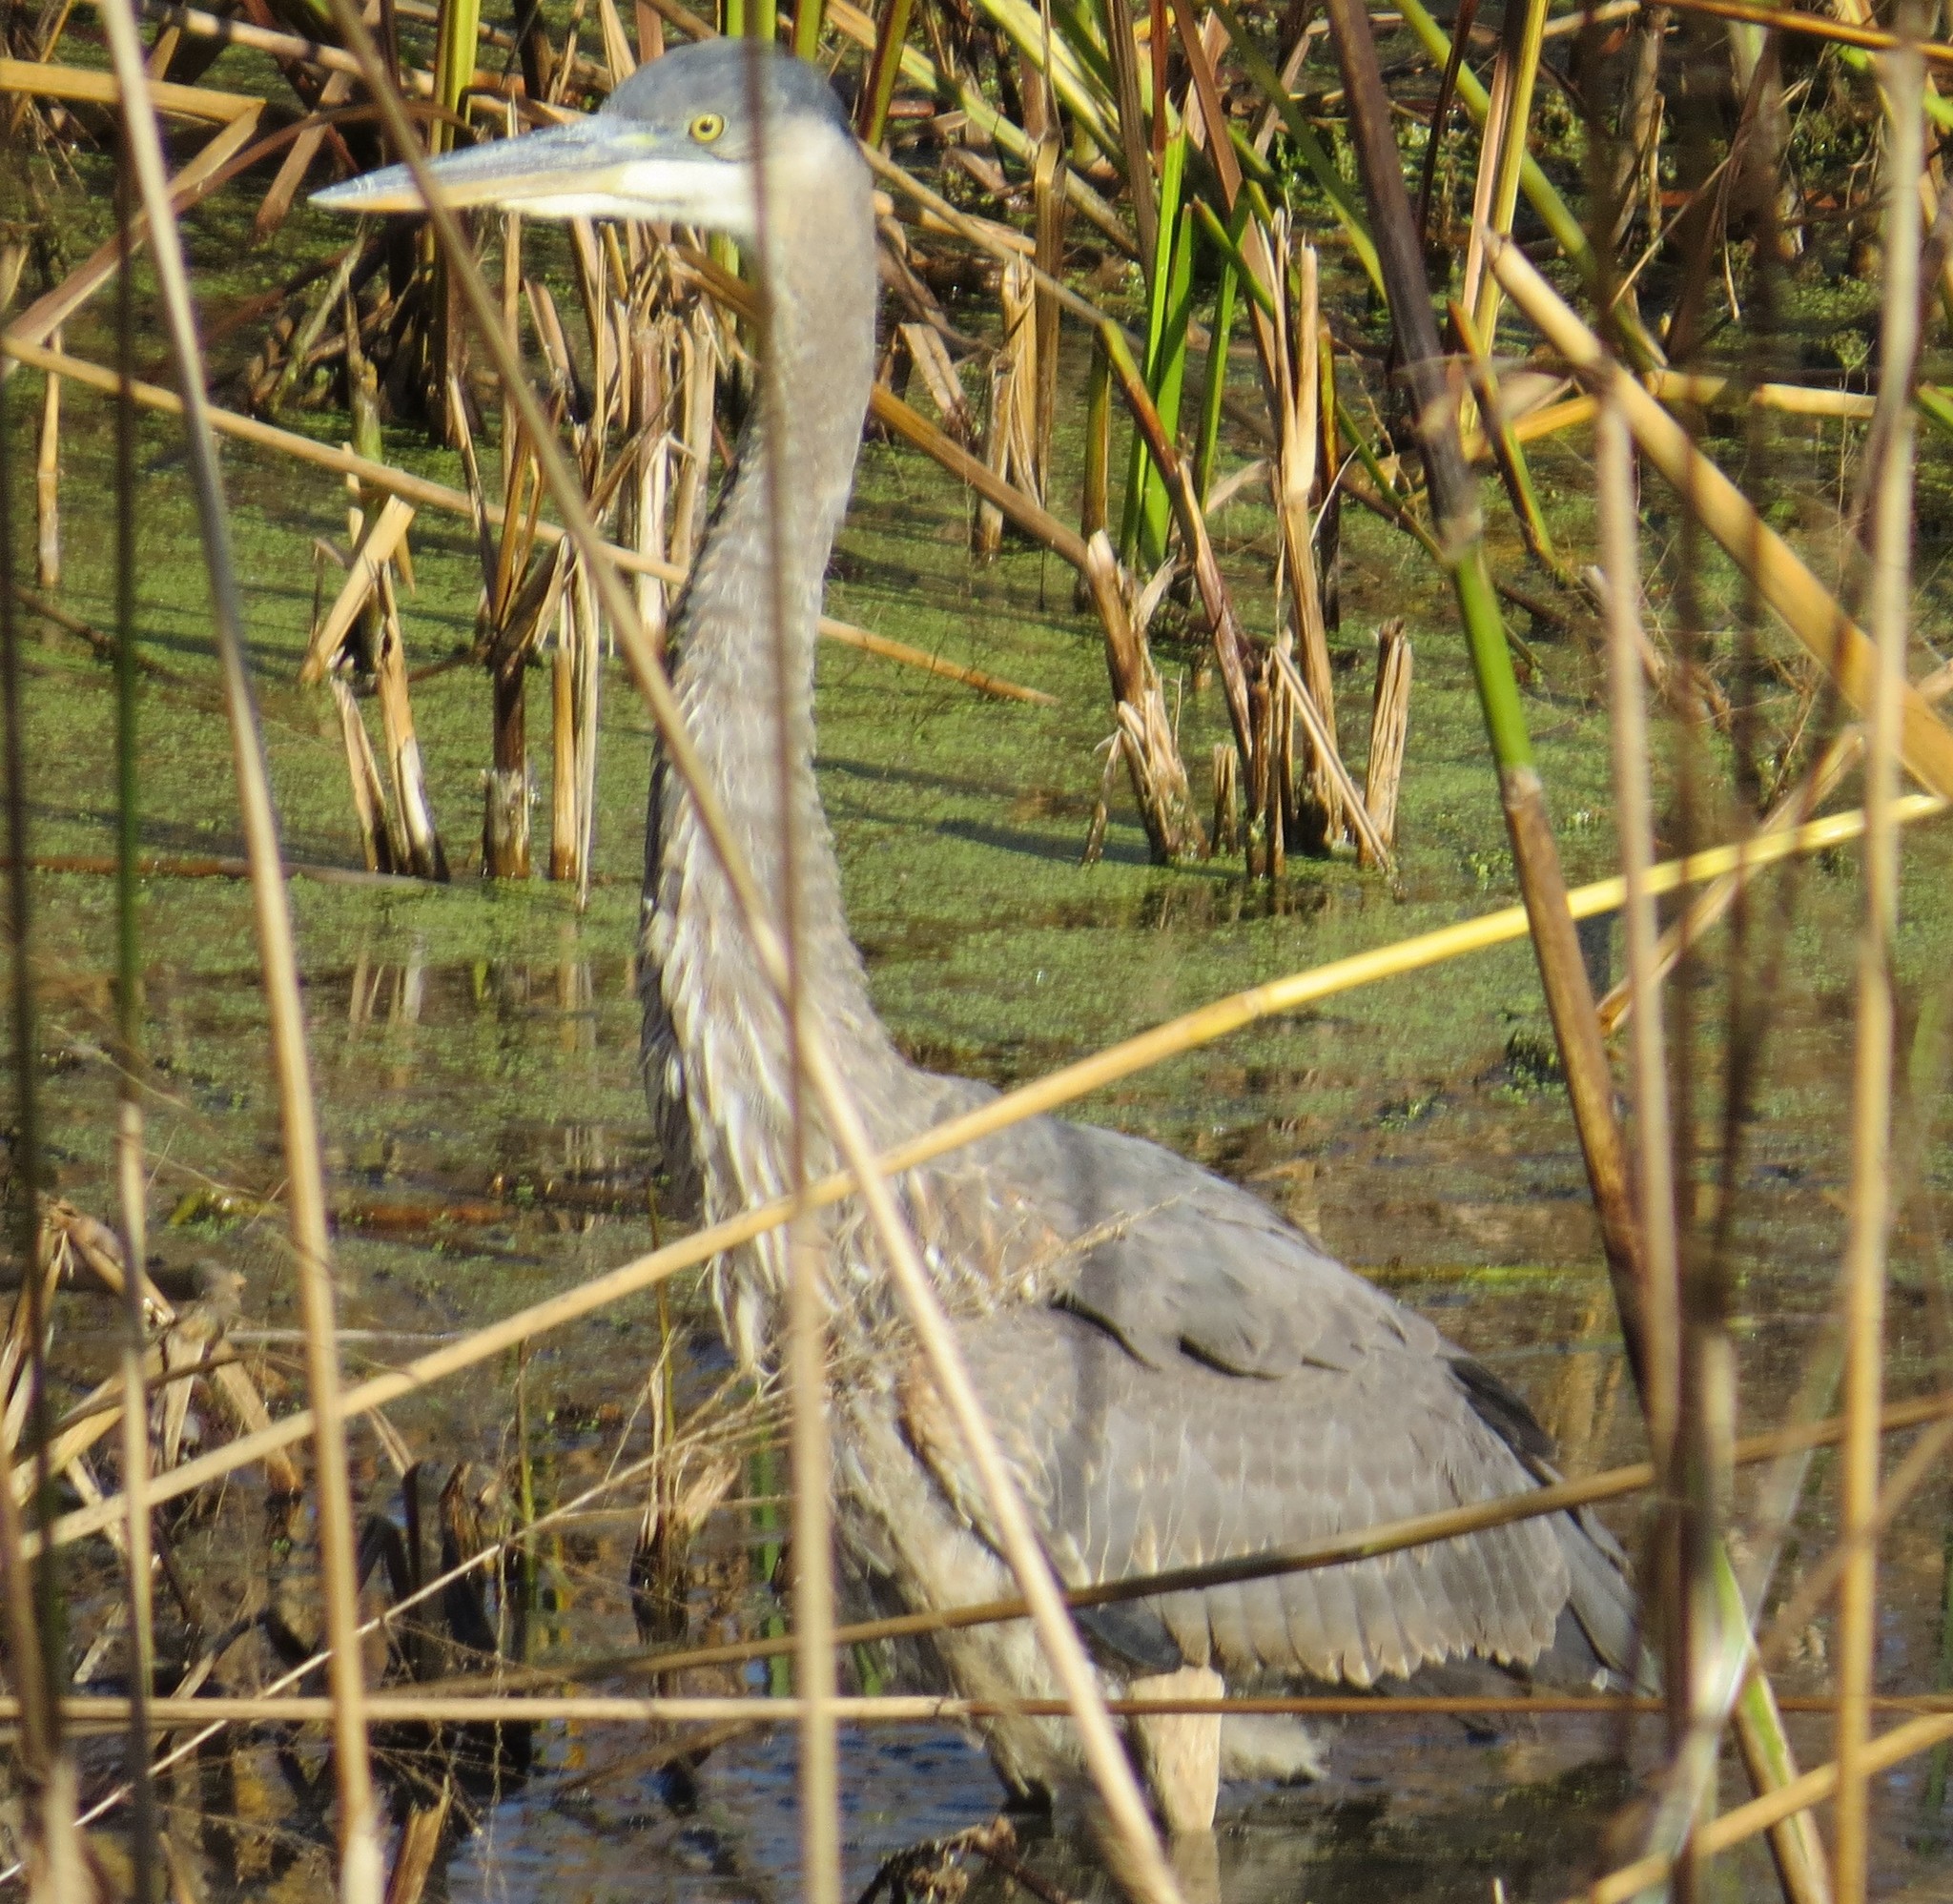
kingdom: Animalia
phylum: Chordata
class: Aves
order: Pelecaniformes
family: Ardeidae
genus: Ardea
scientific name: Ardea herodias
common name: Great blue heron
